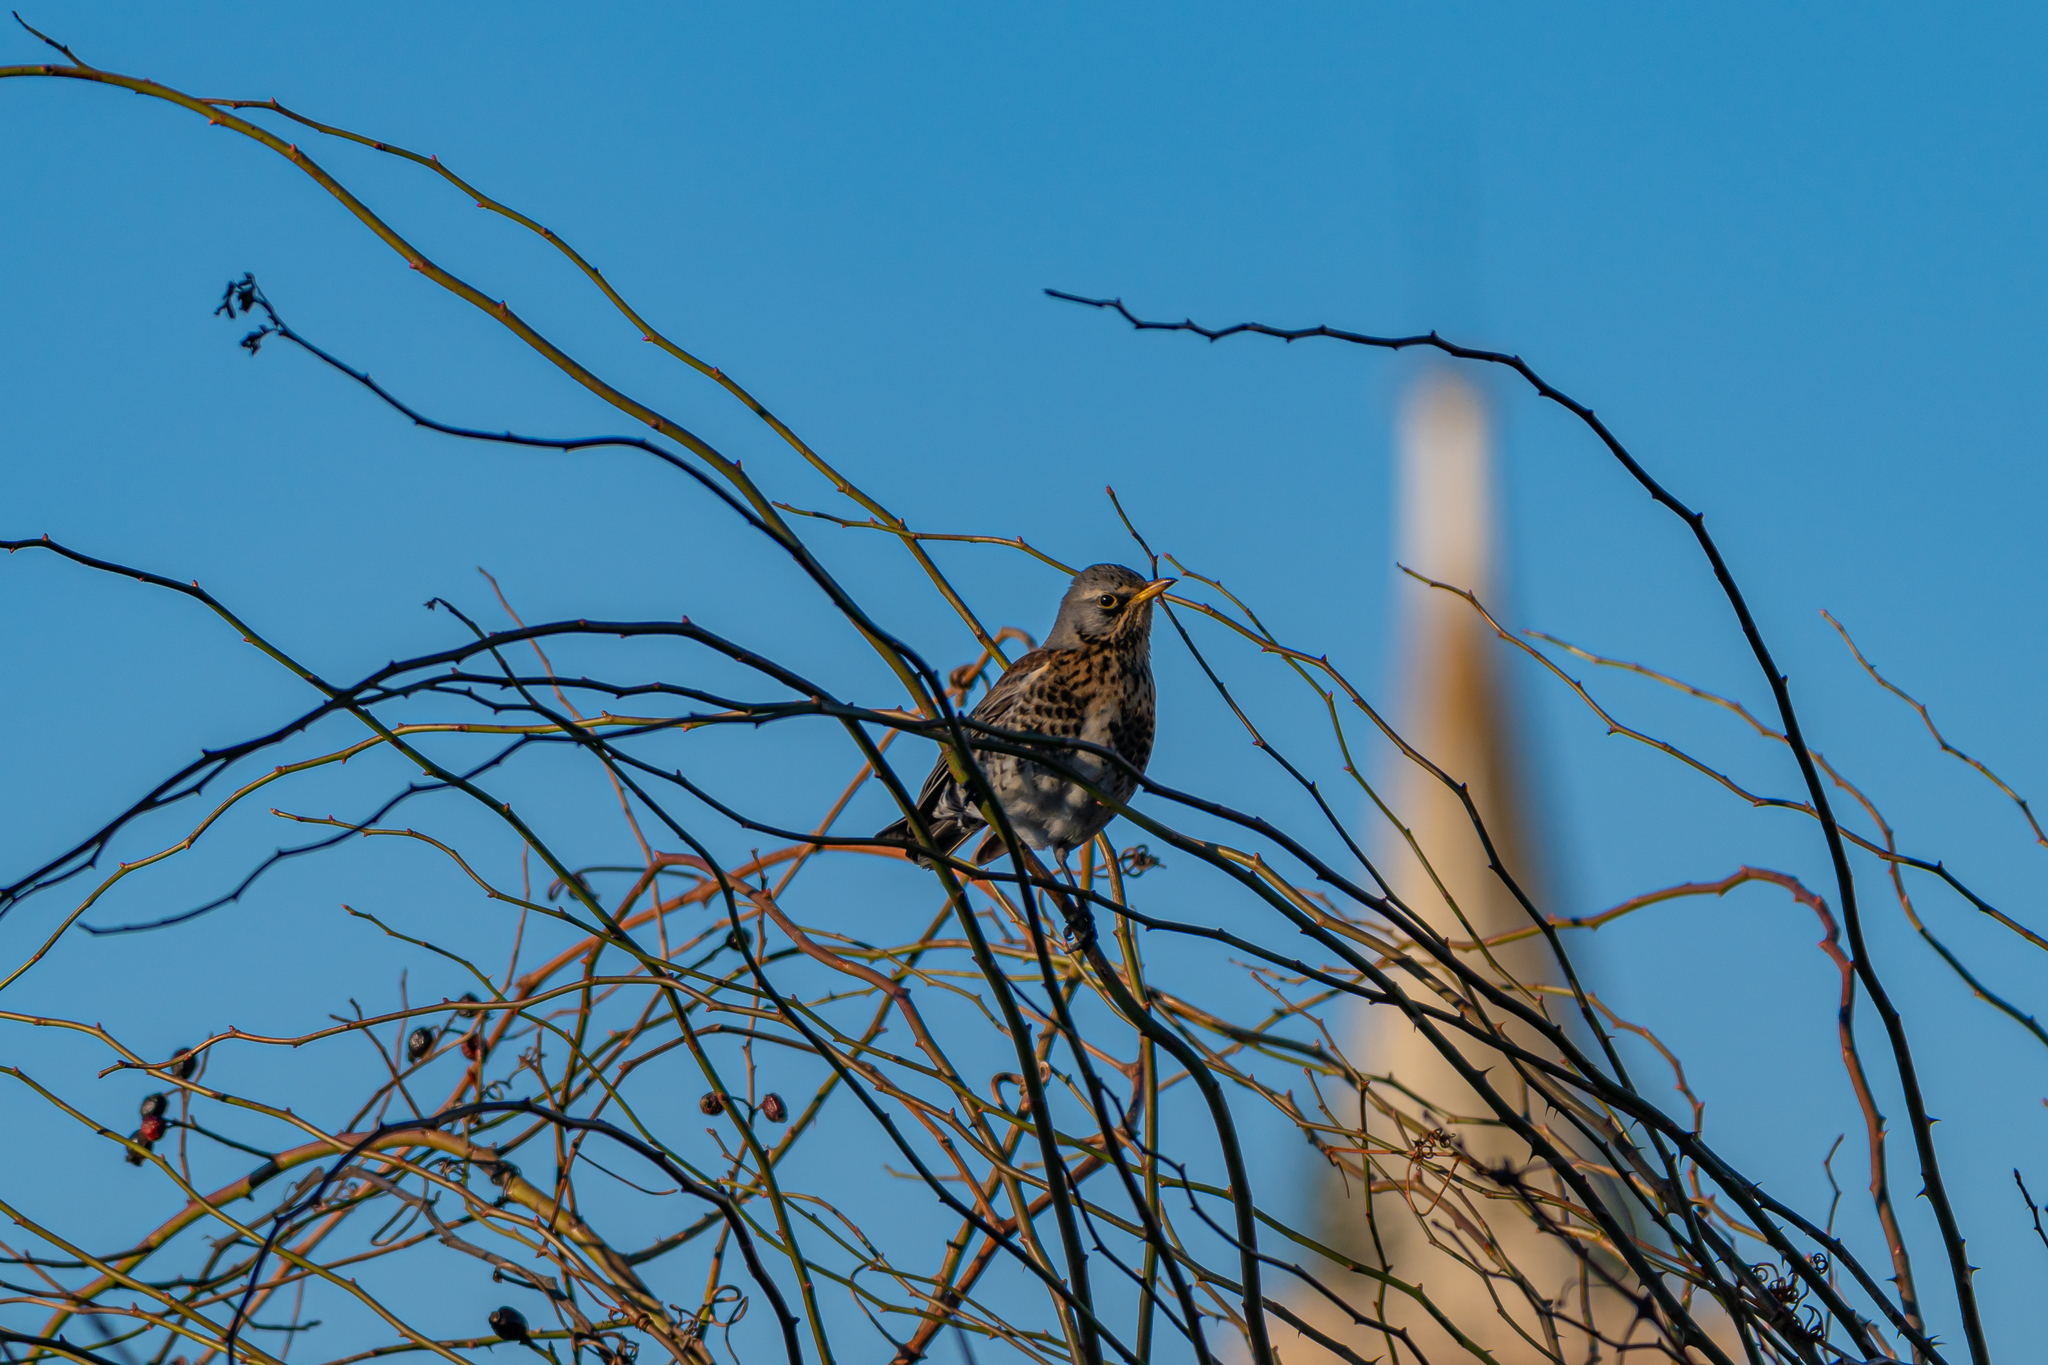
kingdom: Animalia
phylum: Chordata
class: Aves
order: Passeriformes
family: Turdidae
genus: Turdus
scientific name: Turdus pilaris
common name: Fieldfare
